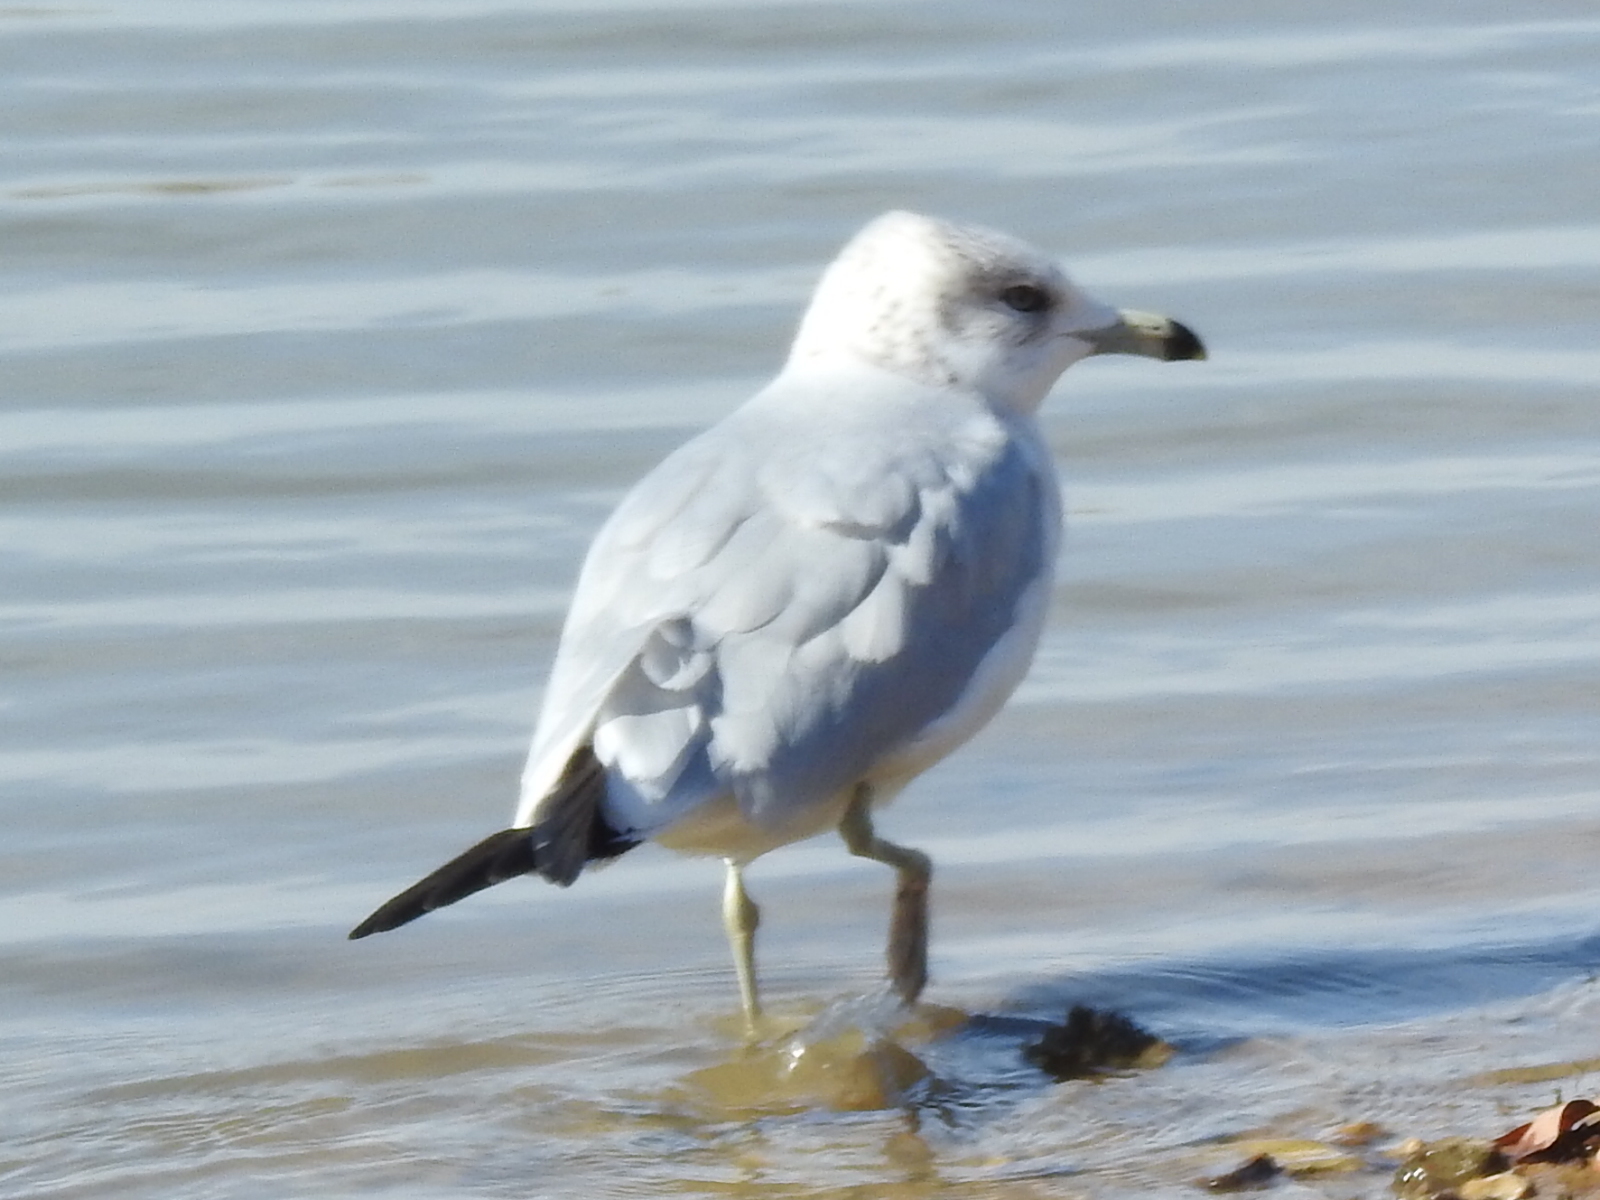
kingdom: Animalia
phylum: Chordata
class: Aves
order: Charadriiformes
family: Laridae
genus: Larus
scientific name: Larus delawarensis
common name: Ring-billed gull
